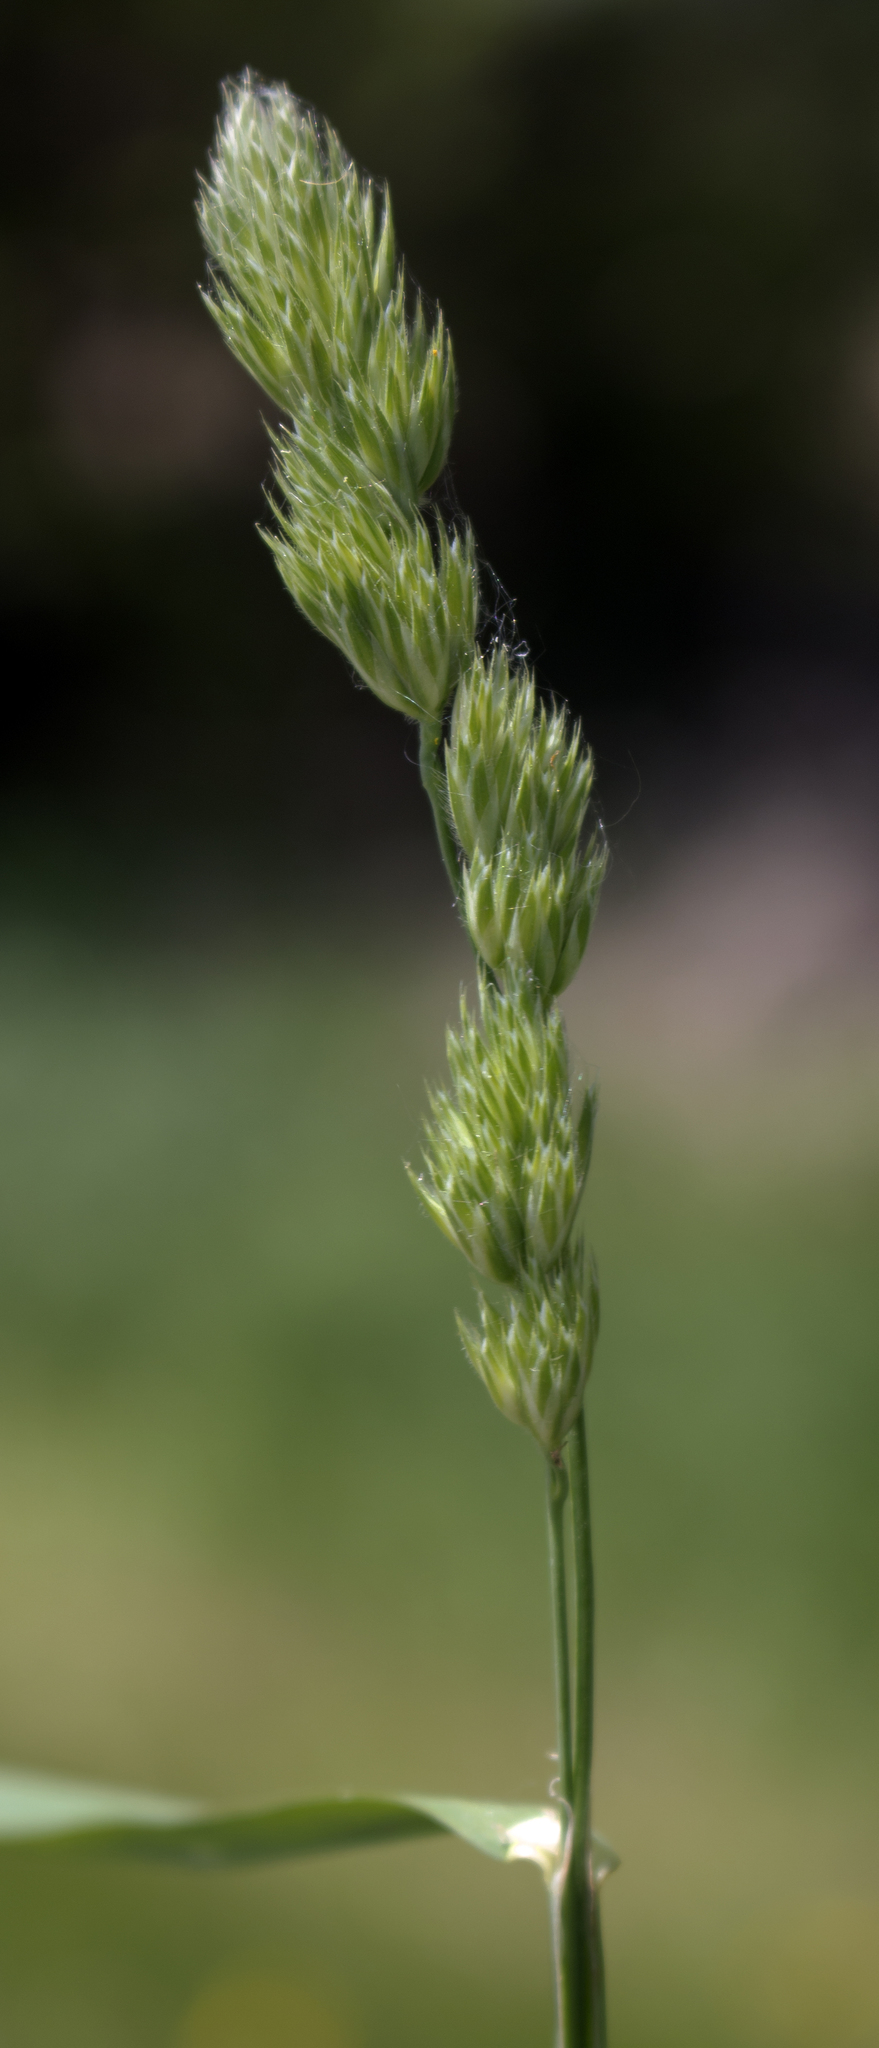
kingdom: Plantae
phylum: Tracheophyta
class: Liliopsida
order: Poales
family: Poaceae
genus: Dactylis
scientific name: Dactylis glomerata
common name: Orchardgrass
